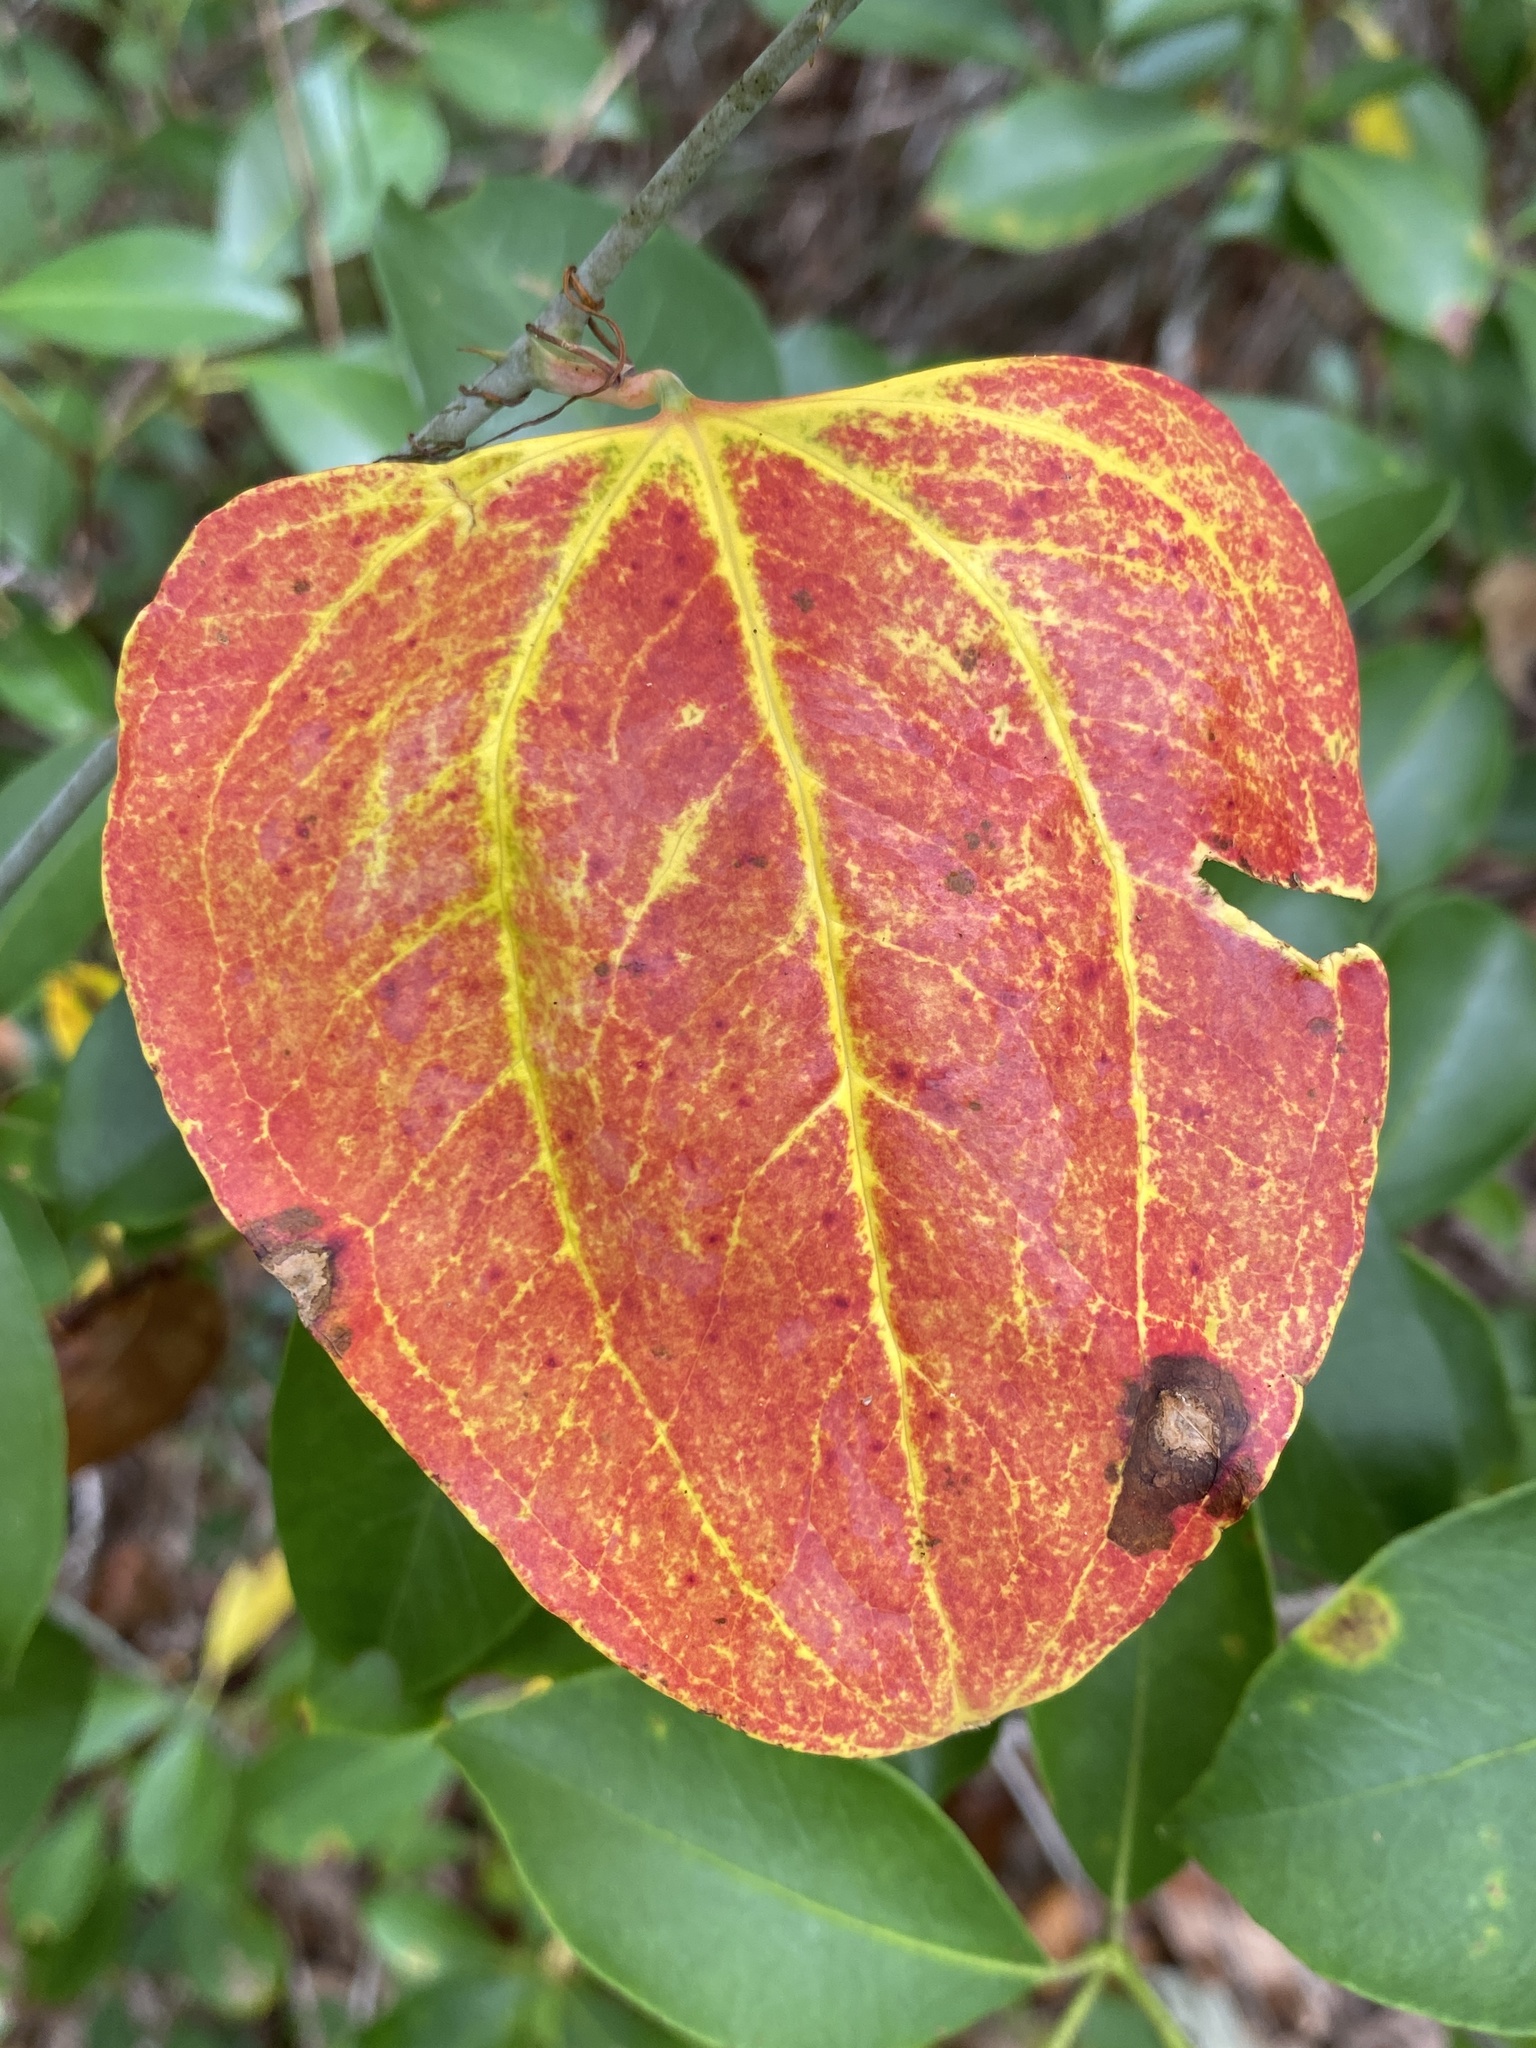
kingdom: Plantae
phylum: Tracheophyta
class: Liliopsida
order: Liliales
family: Smilacaceae
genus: Smilax
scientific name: Smilax glauca
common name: Cat greenbrier
